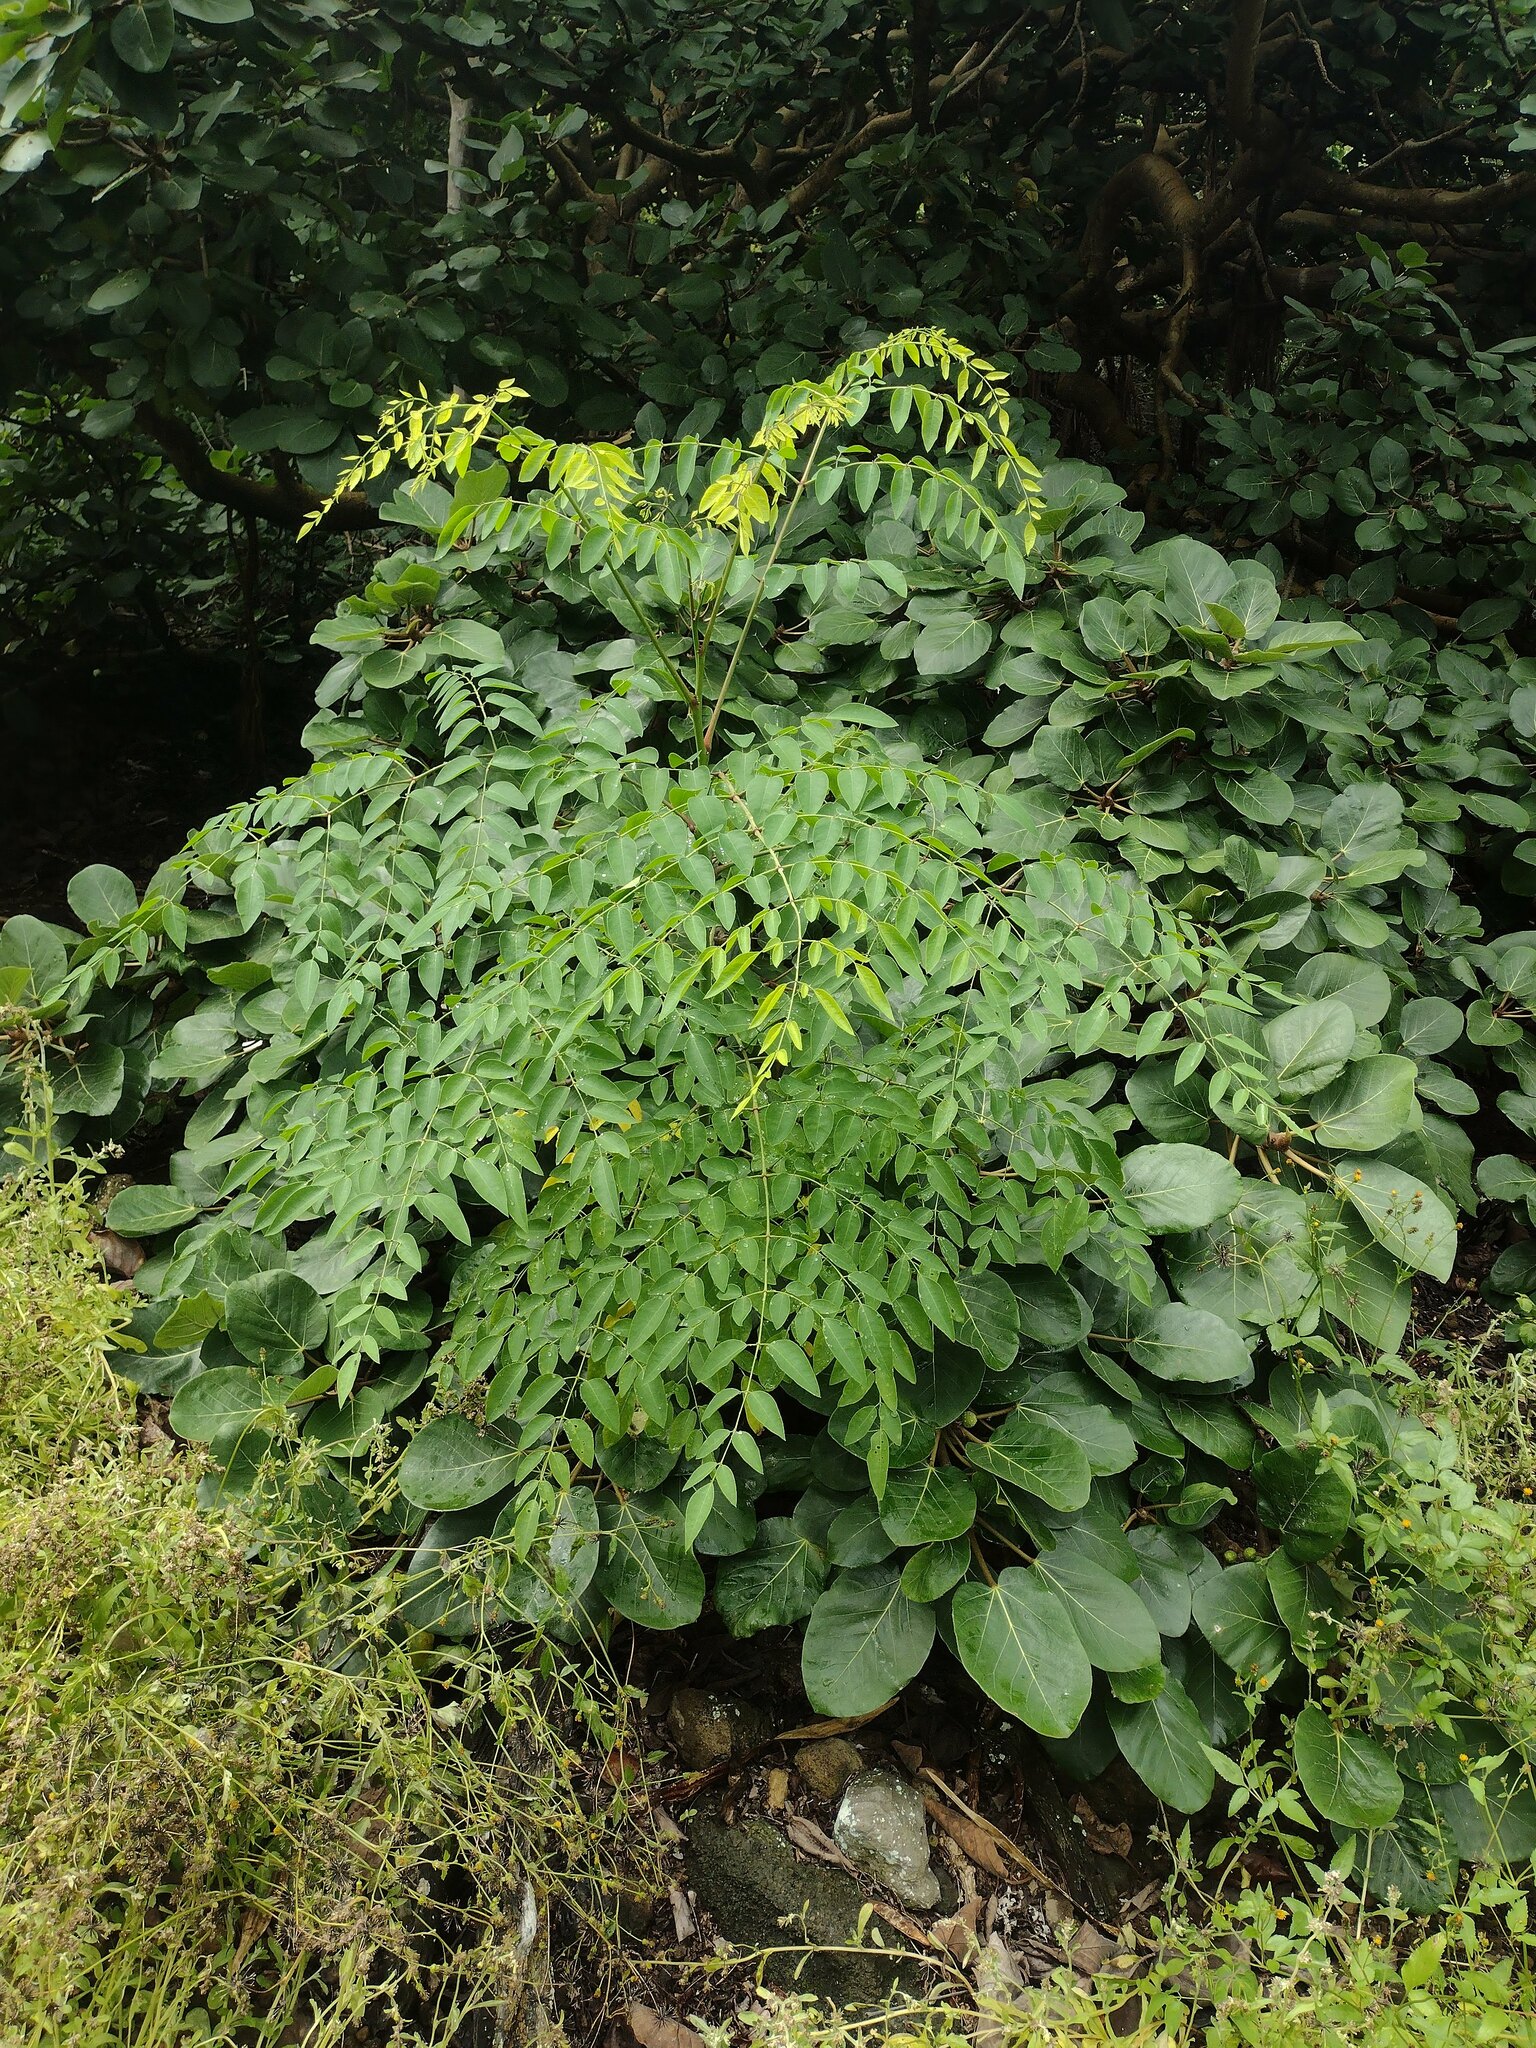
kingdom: Plantae
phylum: Tracheophyta
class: Magnoliopsida
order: Brassicales
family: Moringaceae
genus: Moringa
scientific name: Moringa stenopetala
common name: Cabbage tree
